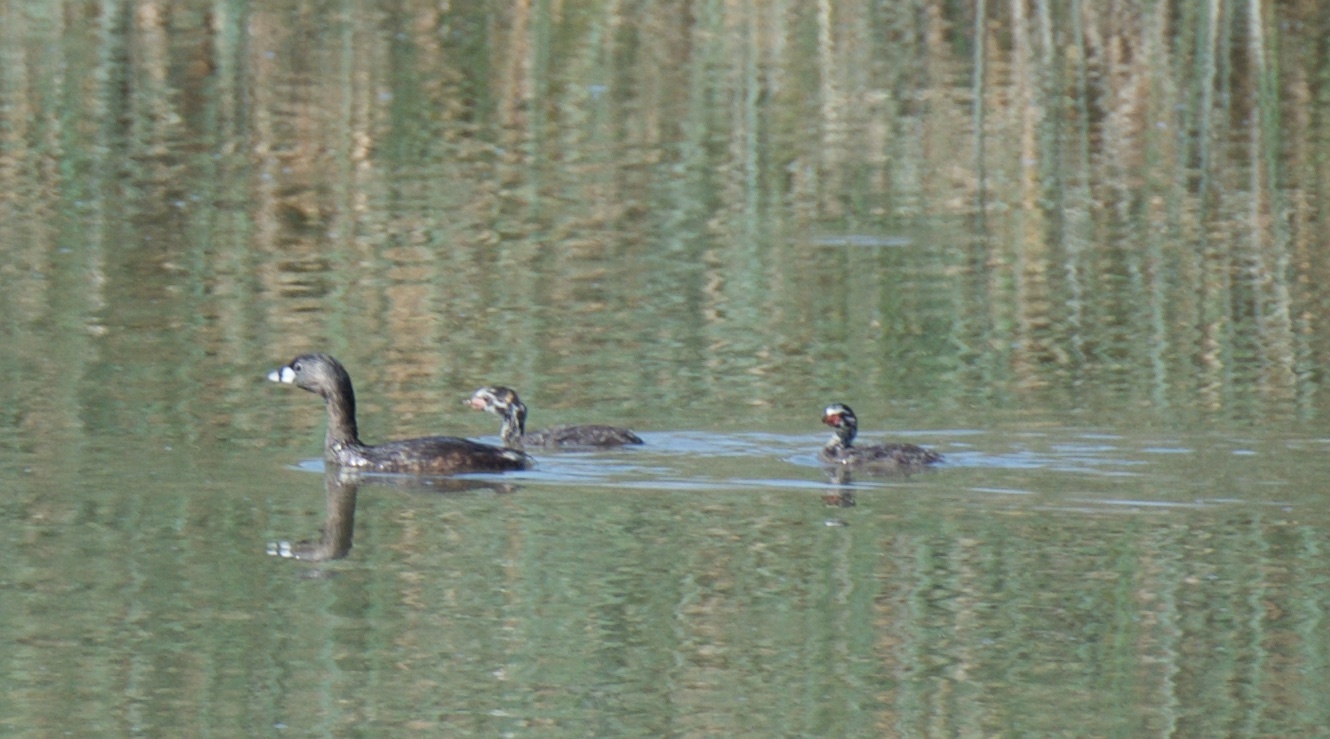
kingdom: Animalia
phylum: Chordata
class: Aves
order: Podicipediformes
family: Podicipedidae
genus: Podilymbus
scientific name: Podilymbus podiceps
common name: Pied-billed grebe
